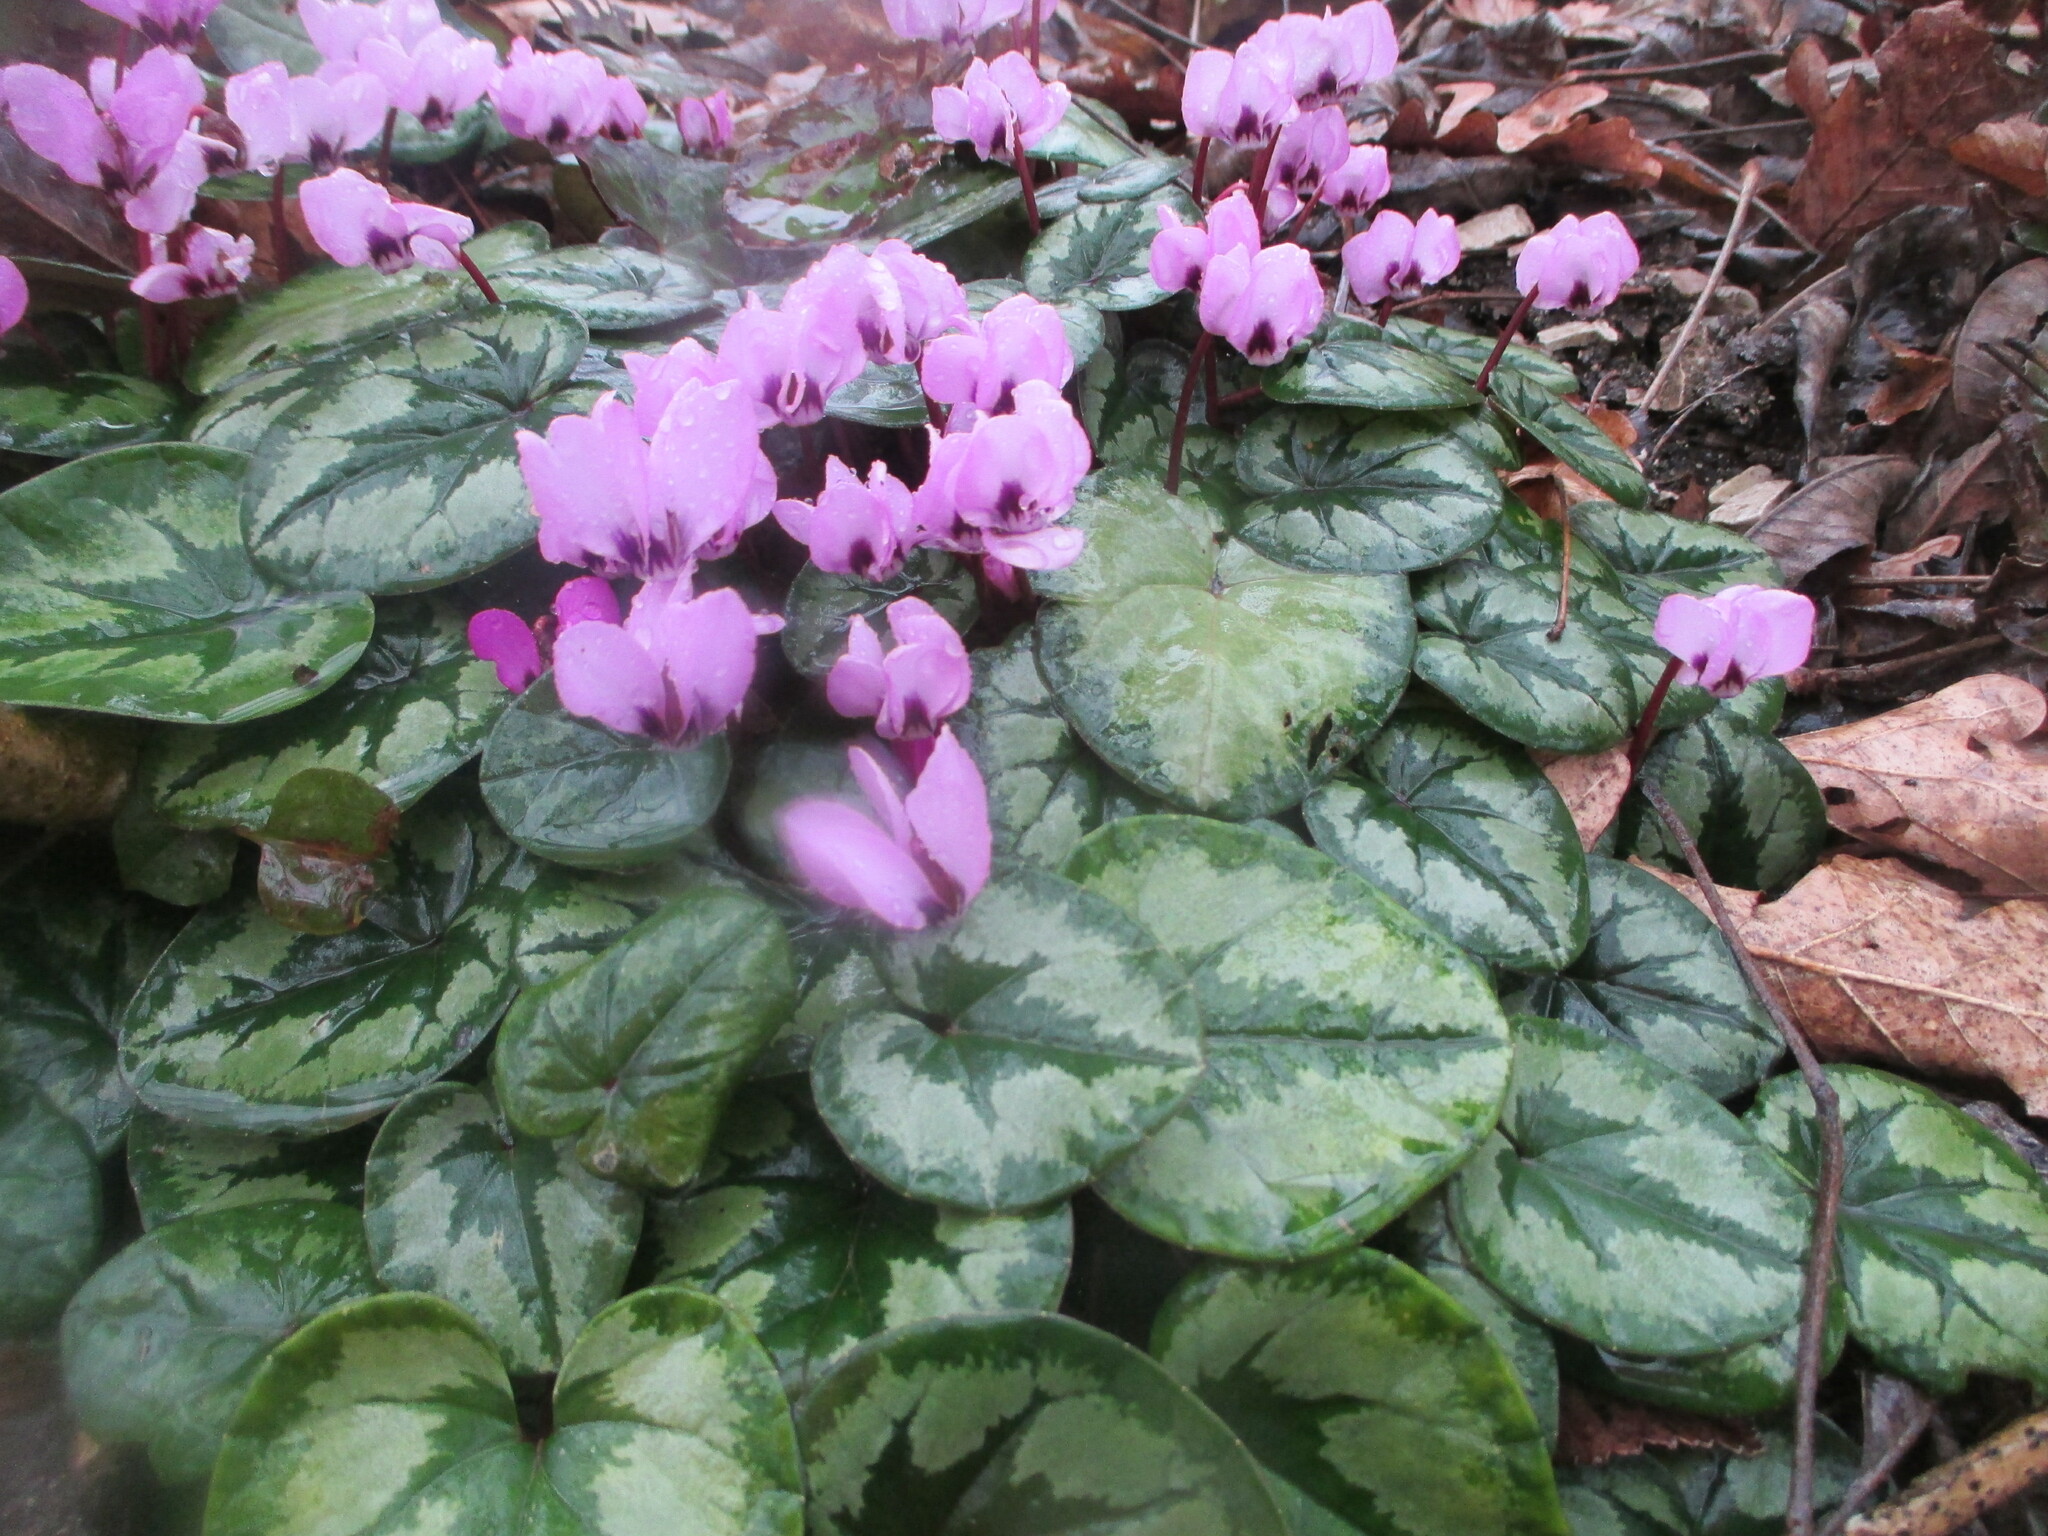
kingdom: Plantae
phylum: Tracheophyta
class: Magnoliopsida
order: Ericales
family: Primulaceae
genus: Cyclamen
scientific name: Cyclamen coum
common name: Eastern sowbread
